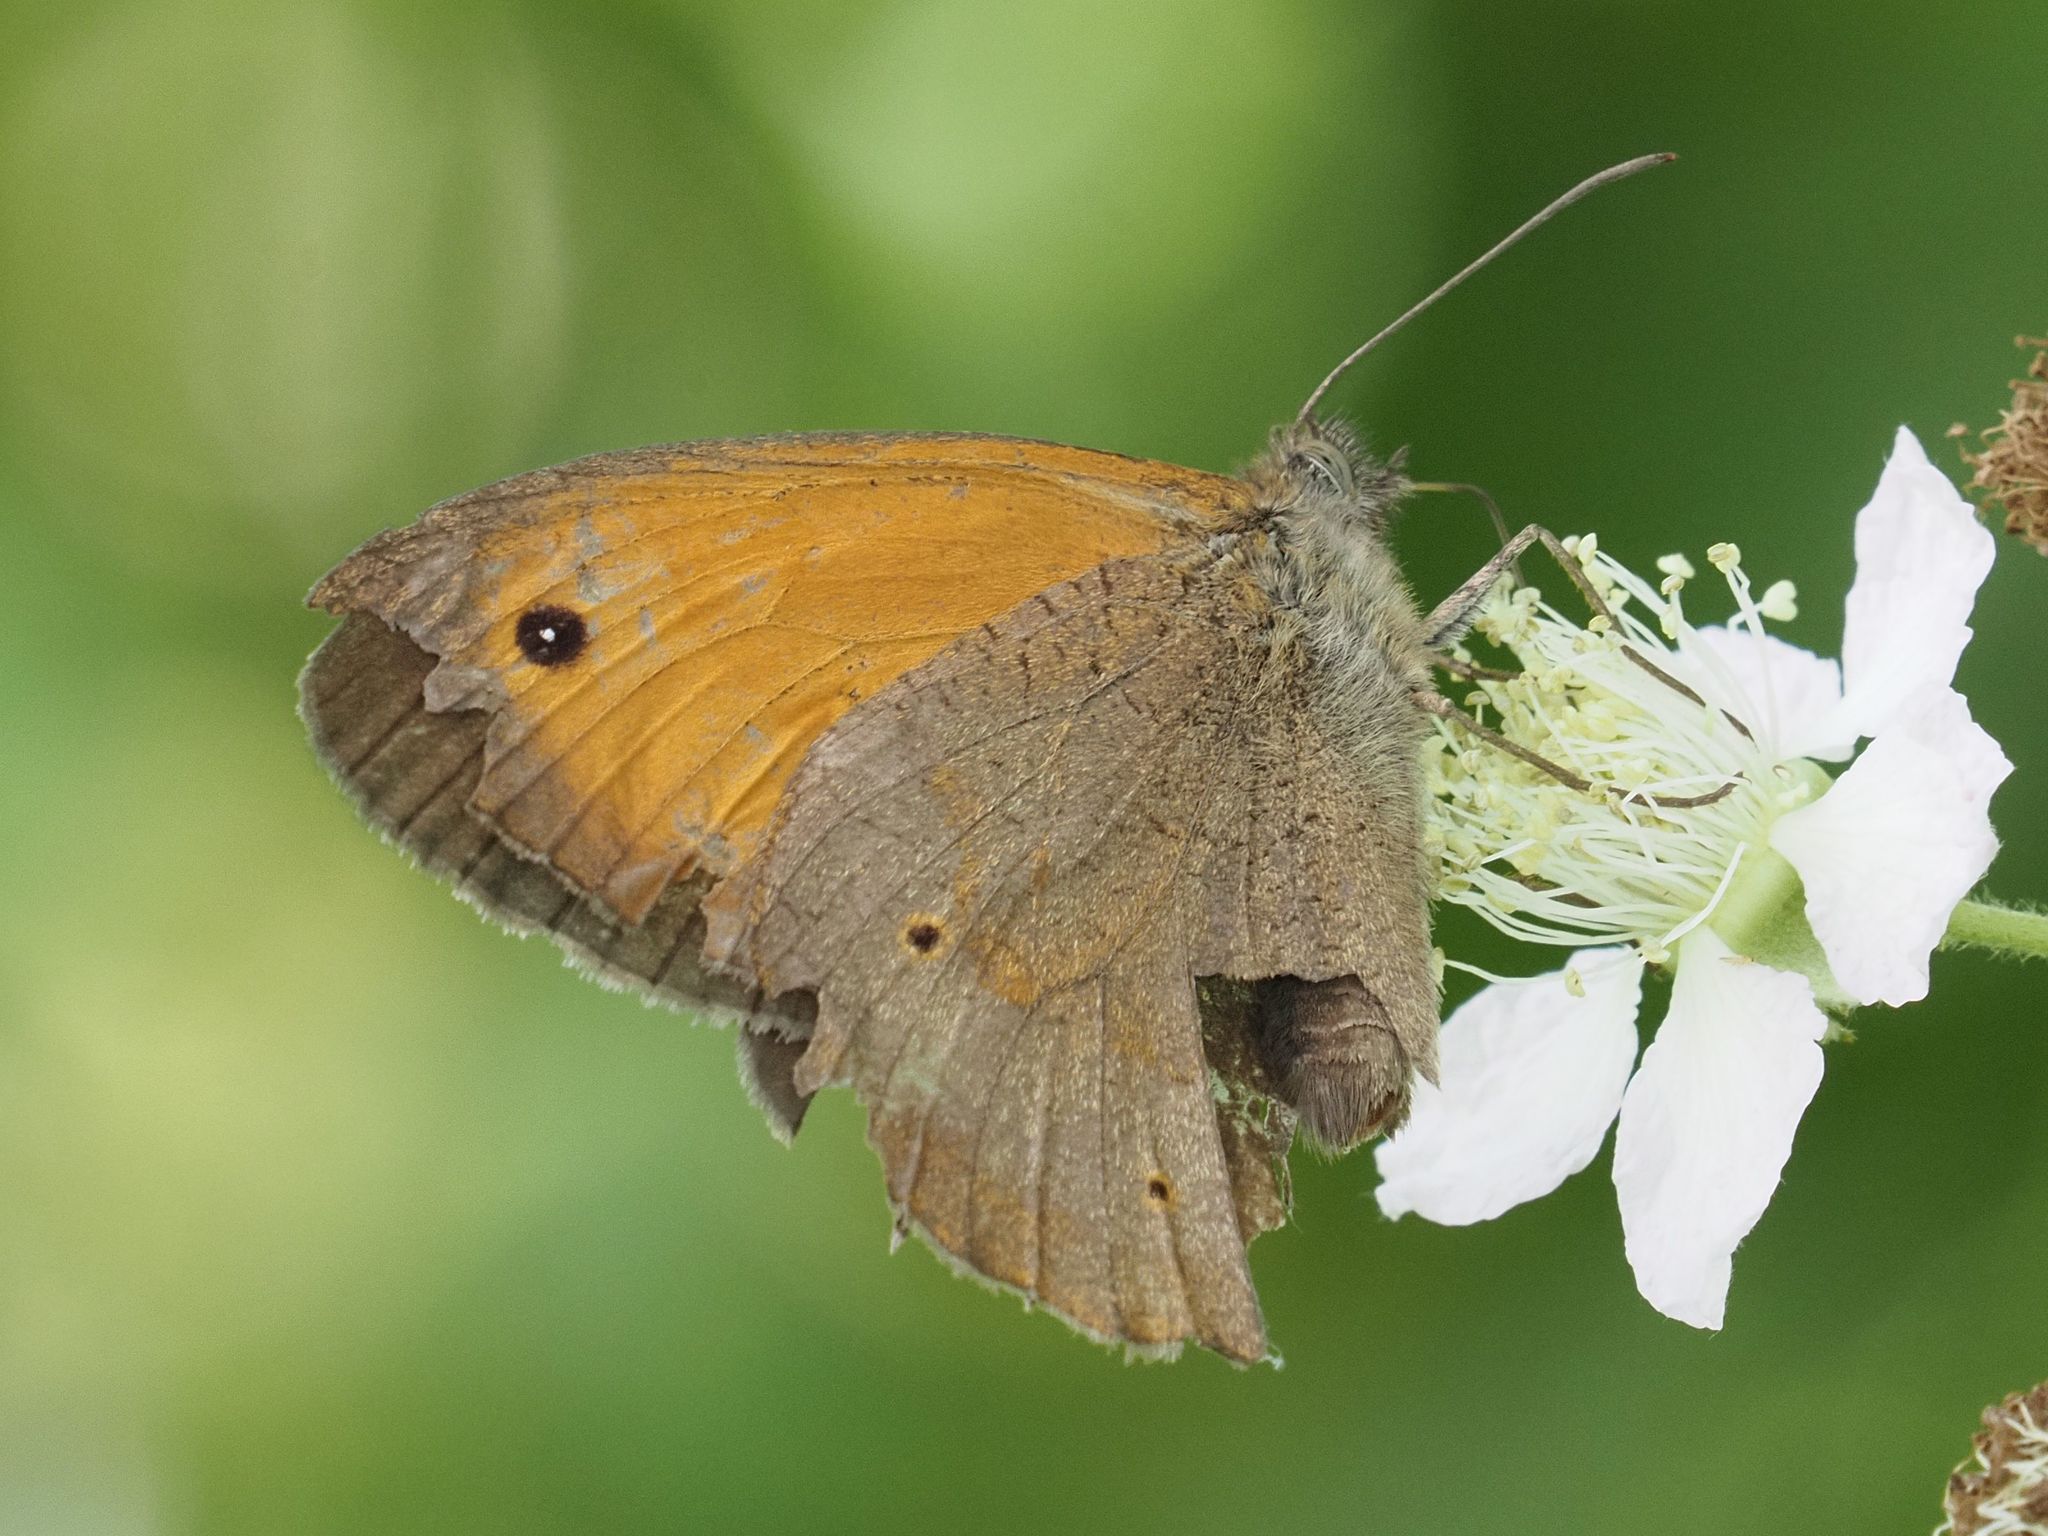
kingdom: Animalia
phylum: Arthropoda
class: Insecta
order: Lepidoptera
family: Nymphalidae
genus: Maniola
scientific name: Maniola jurtina
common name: Meadow brown
